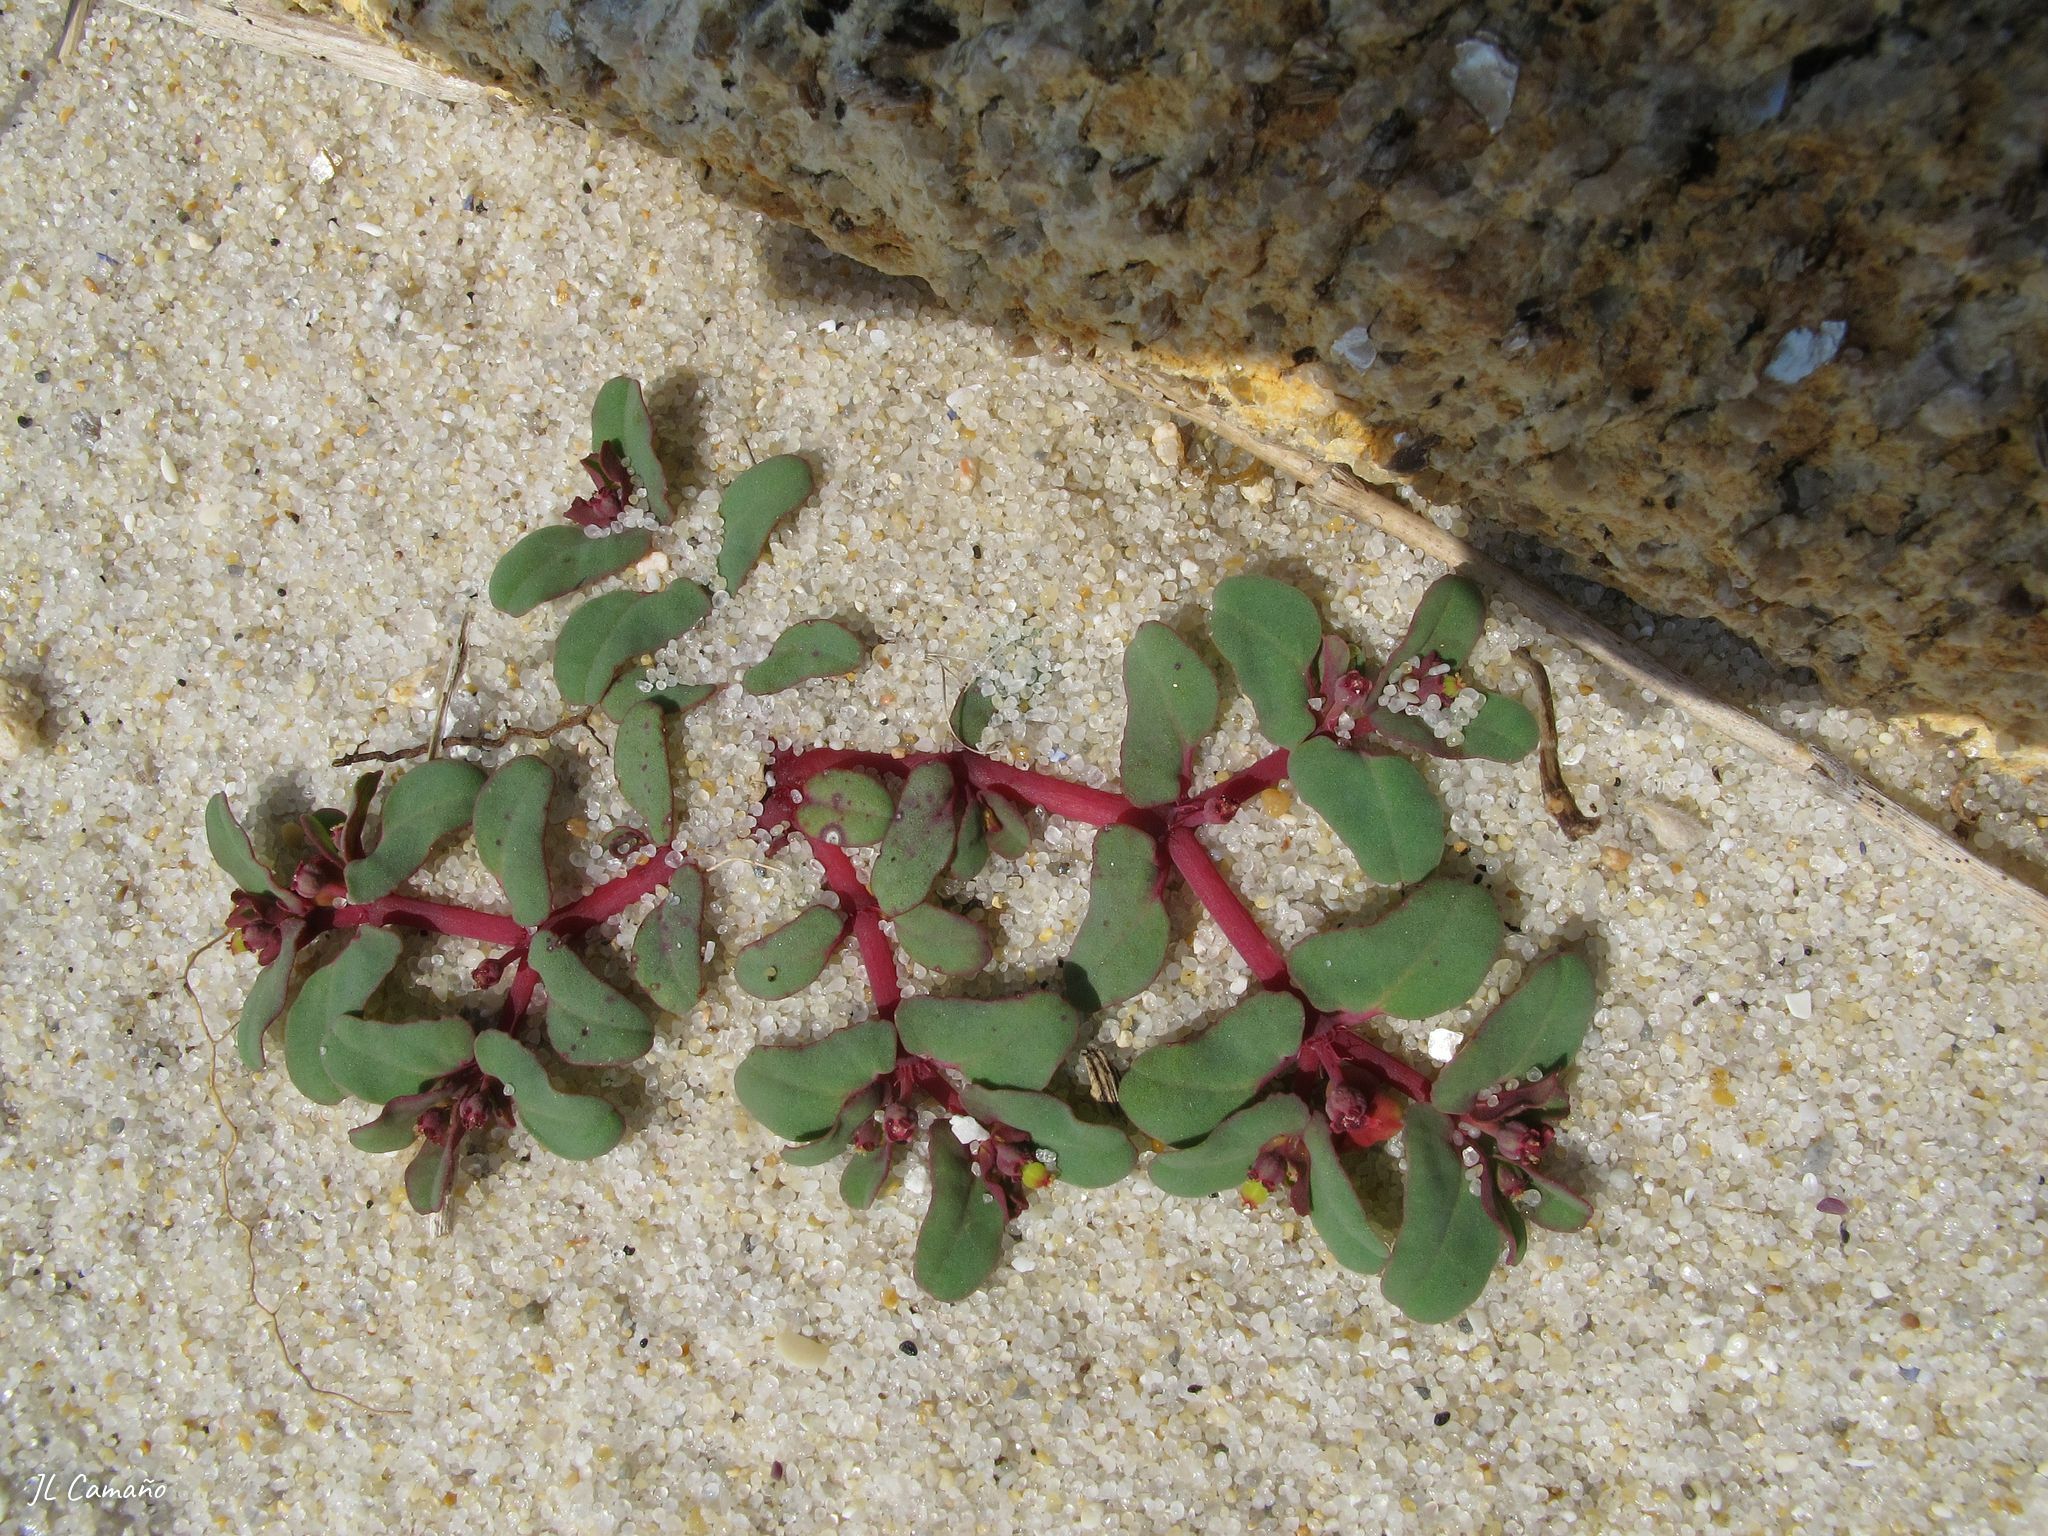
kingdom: Plantae
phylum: Tracheophyta
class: Magnoliopsida
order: Malpighiales
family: Euphorbiaceae
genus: Euphorbia
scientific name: Euphorbia peplis
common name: Purple spurge
